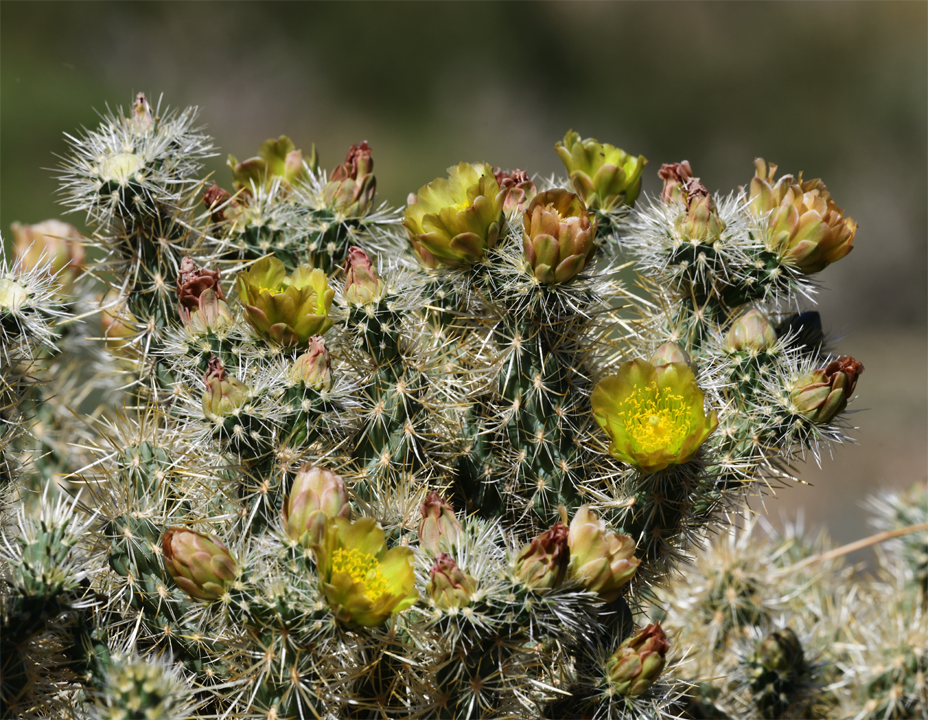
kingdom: Plantae
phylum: Tracheophyta
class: Magnoliopsida
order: Caryophyllales
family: Cactaceae
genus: Cylindropuntia
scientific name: Cylindropuntia echinocarpa
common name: Ground cholla
